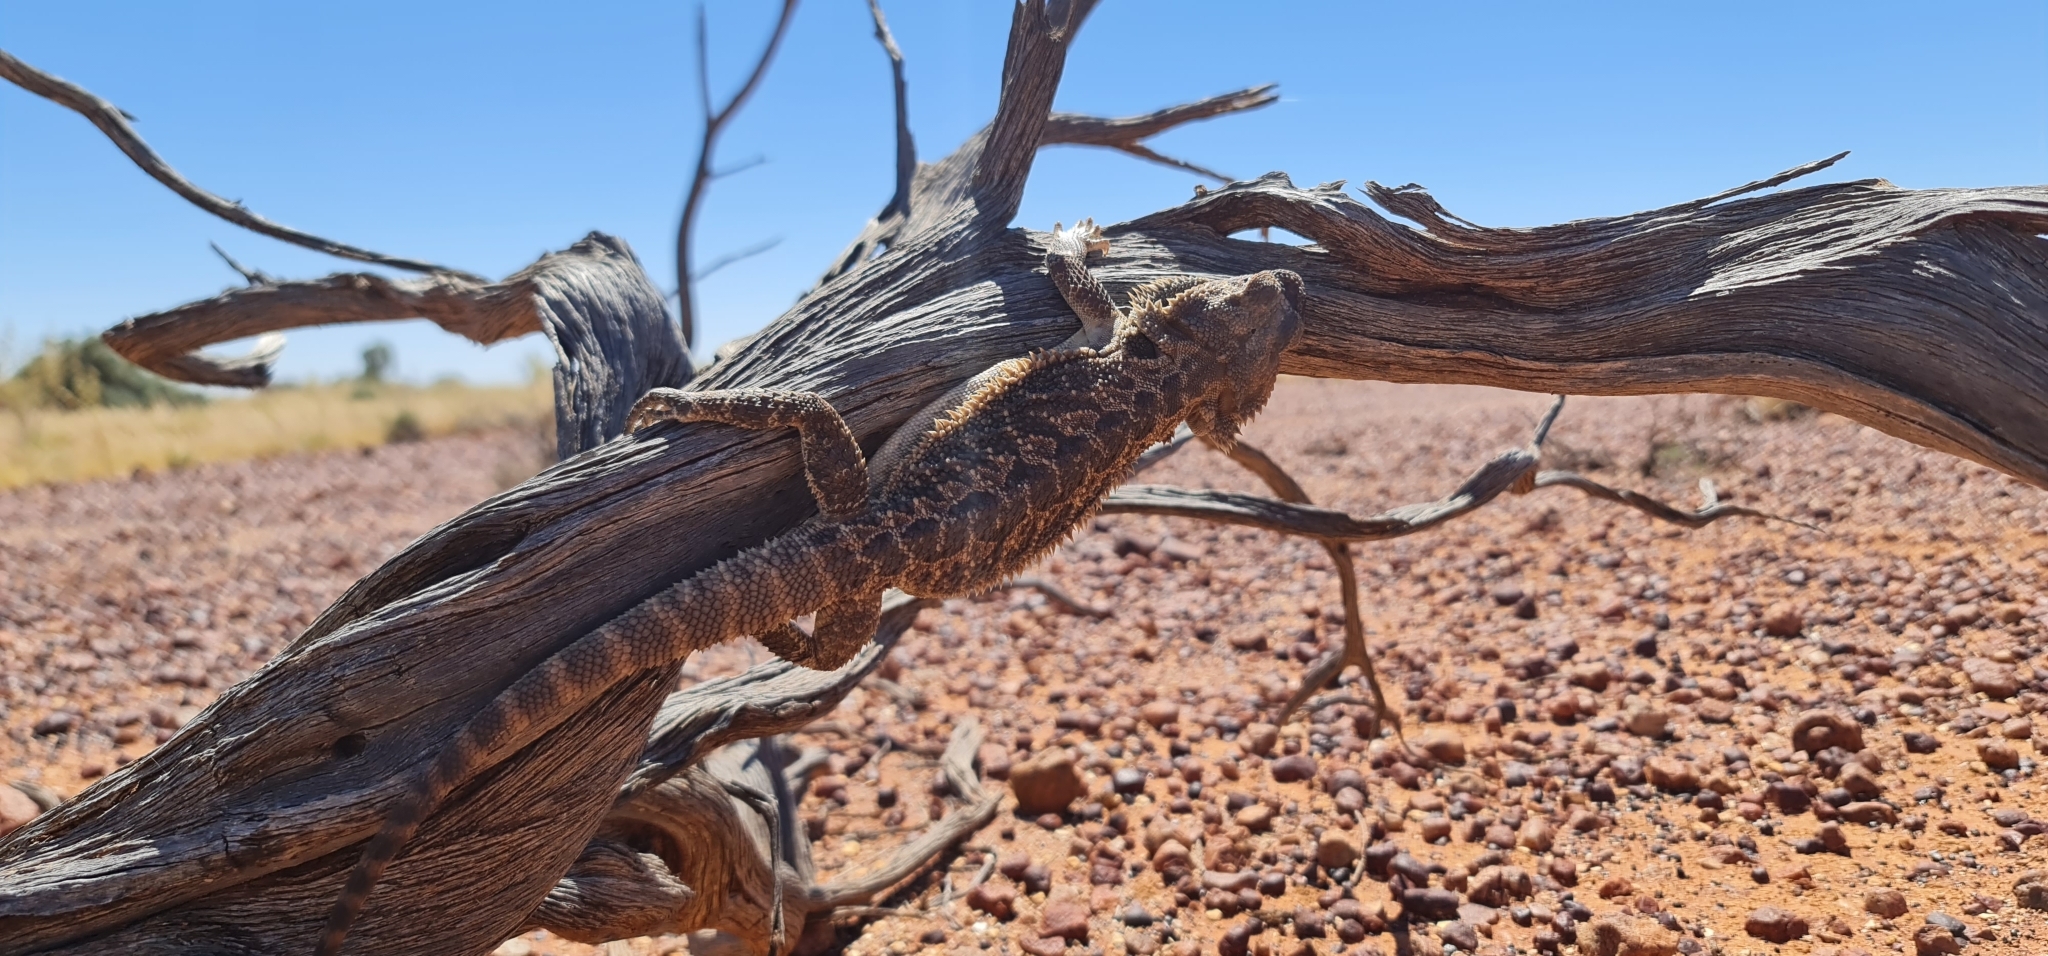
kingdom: Animalia
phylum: Chordata
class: Squamata
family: Agamidae
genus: Pogona
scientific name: Pogona vitticeps
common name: Central bearded dragon
